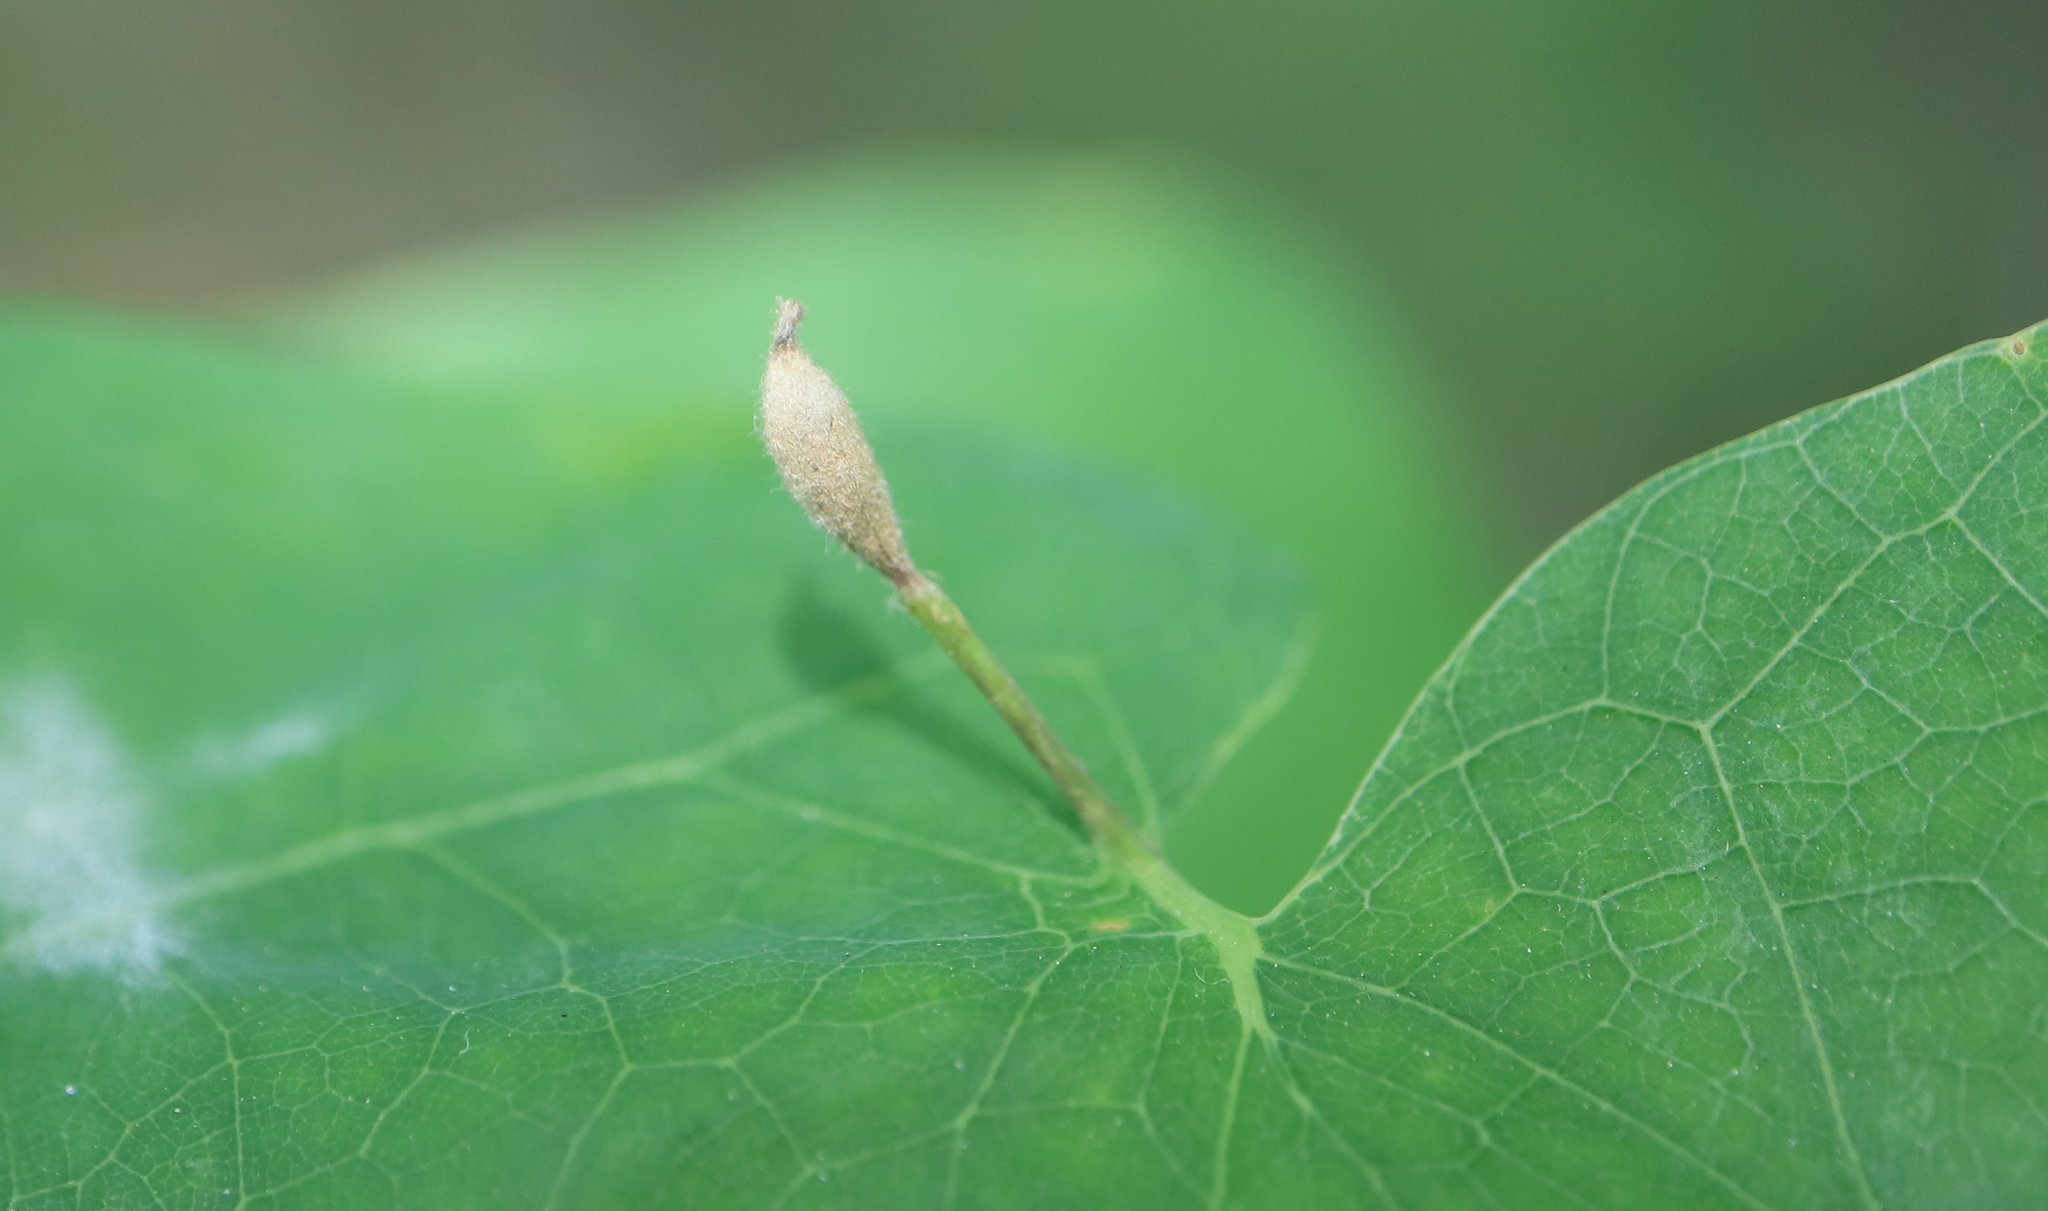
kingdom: Animalia
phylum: Arthropoda
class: Insecta
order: Hymenoptera
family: Cynipidae
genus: Andricus
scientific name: Andricus
